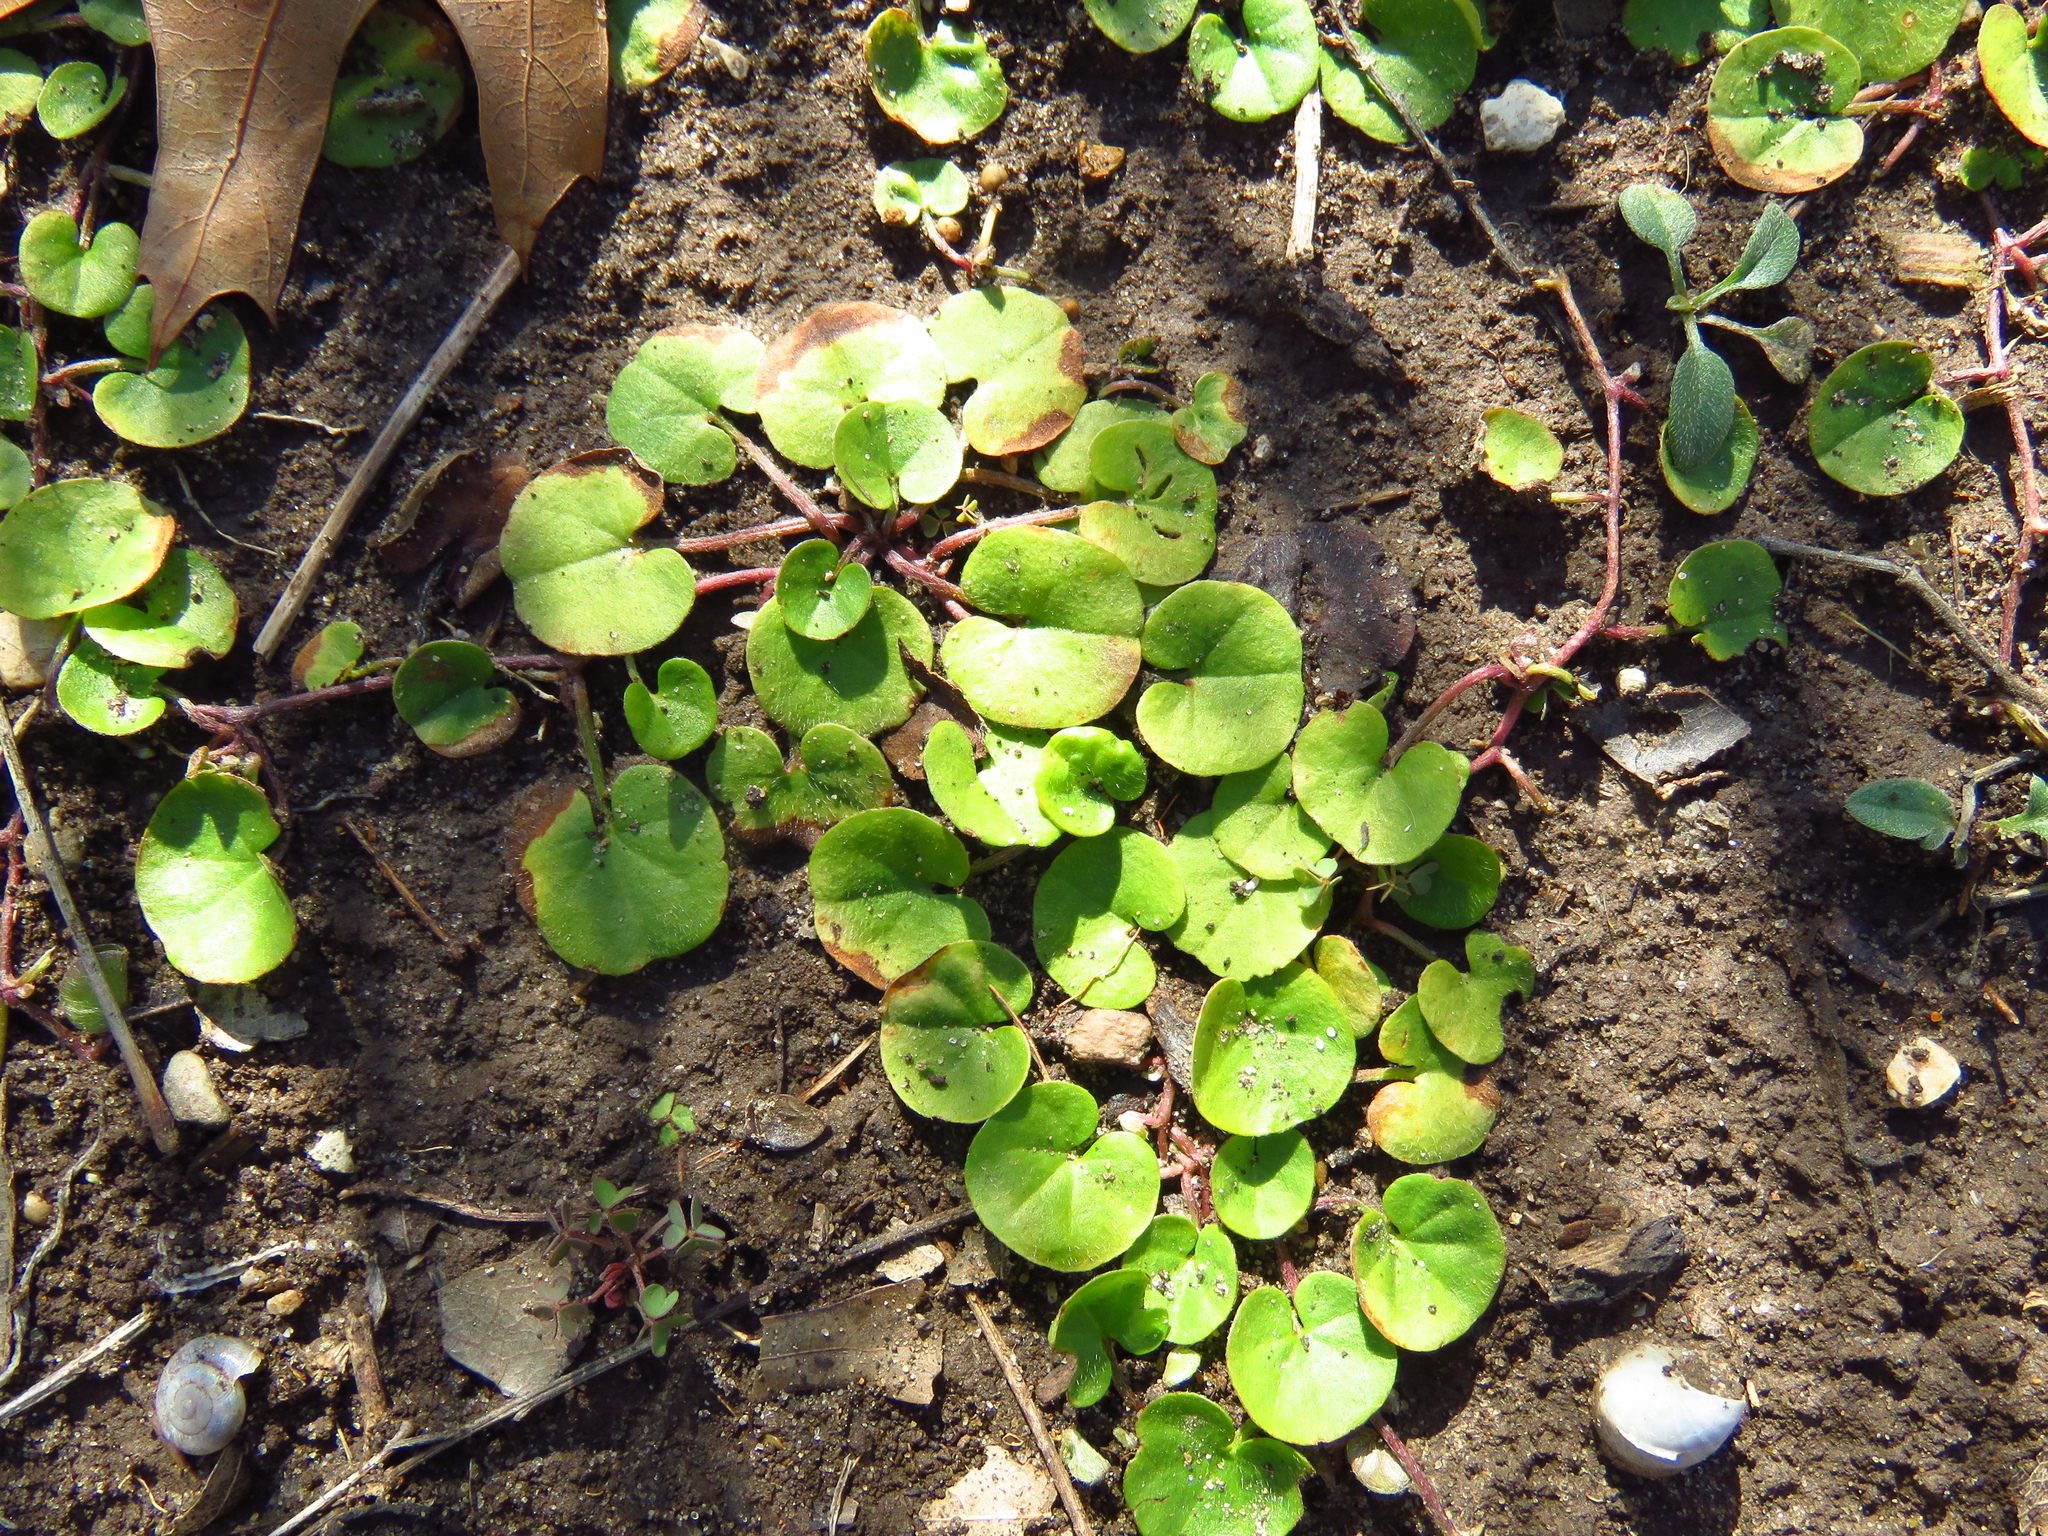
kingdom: Plantae
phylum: Tracheophyta
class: Magnoliopsida
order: Solanales
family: Convolvulaceae
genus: Dichondra
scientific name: Dichondra carolinensis
